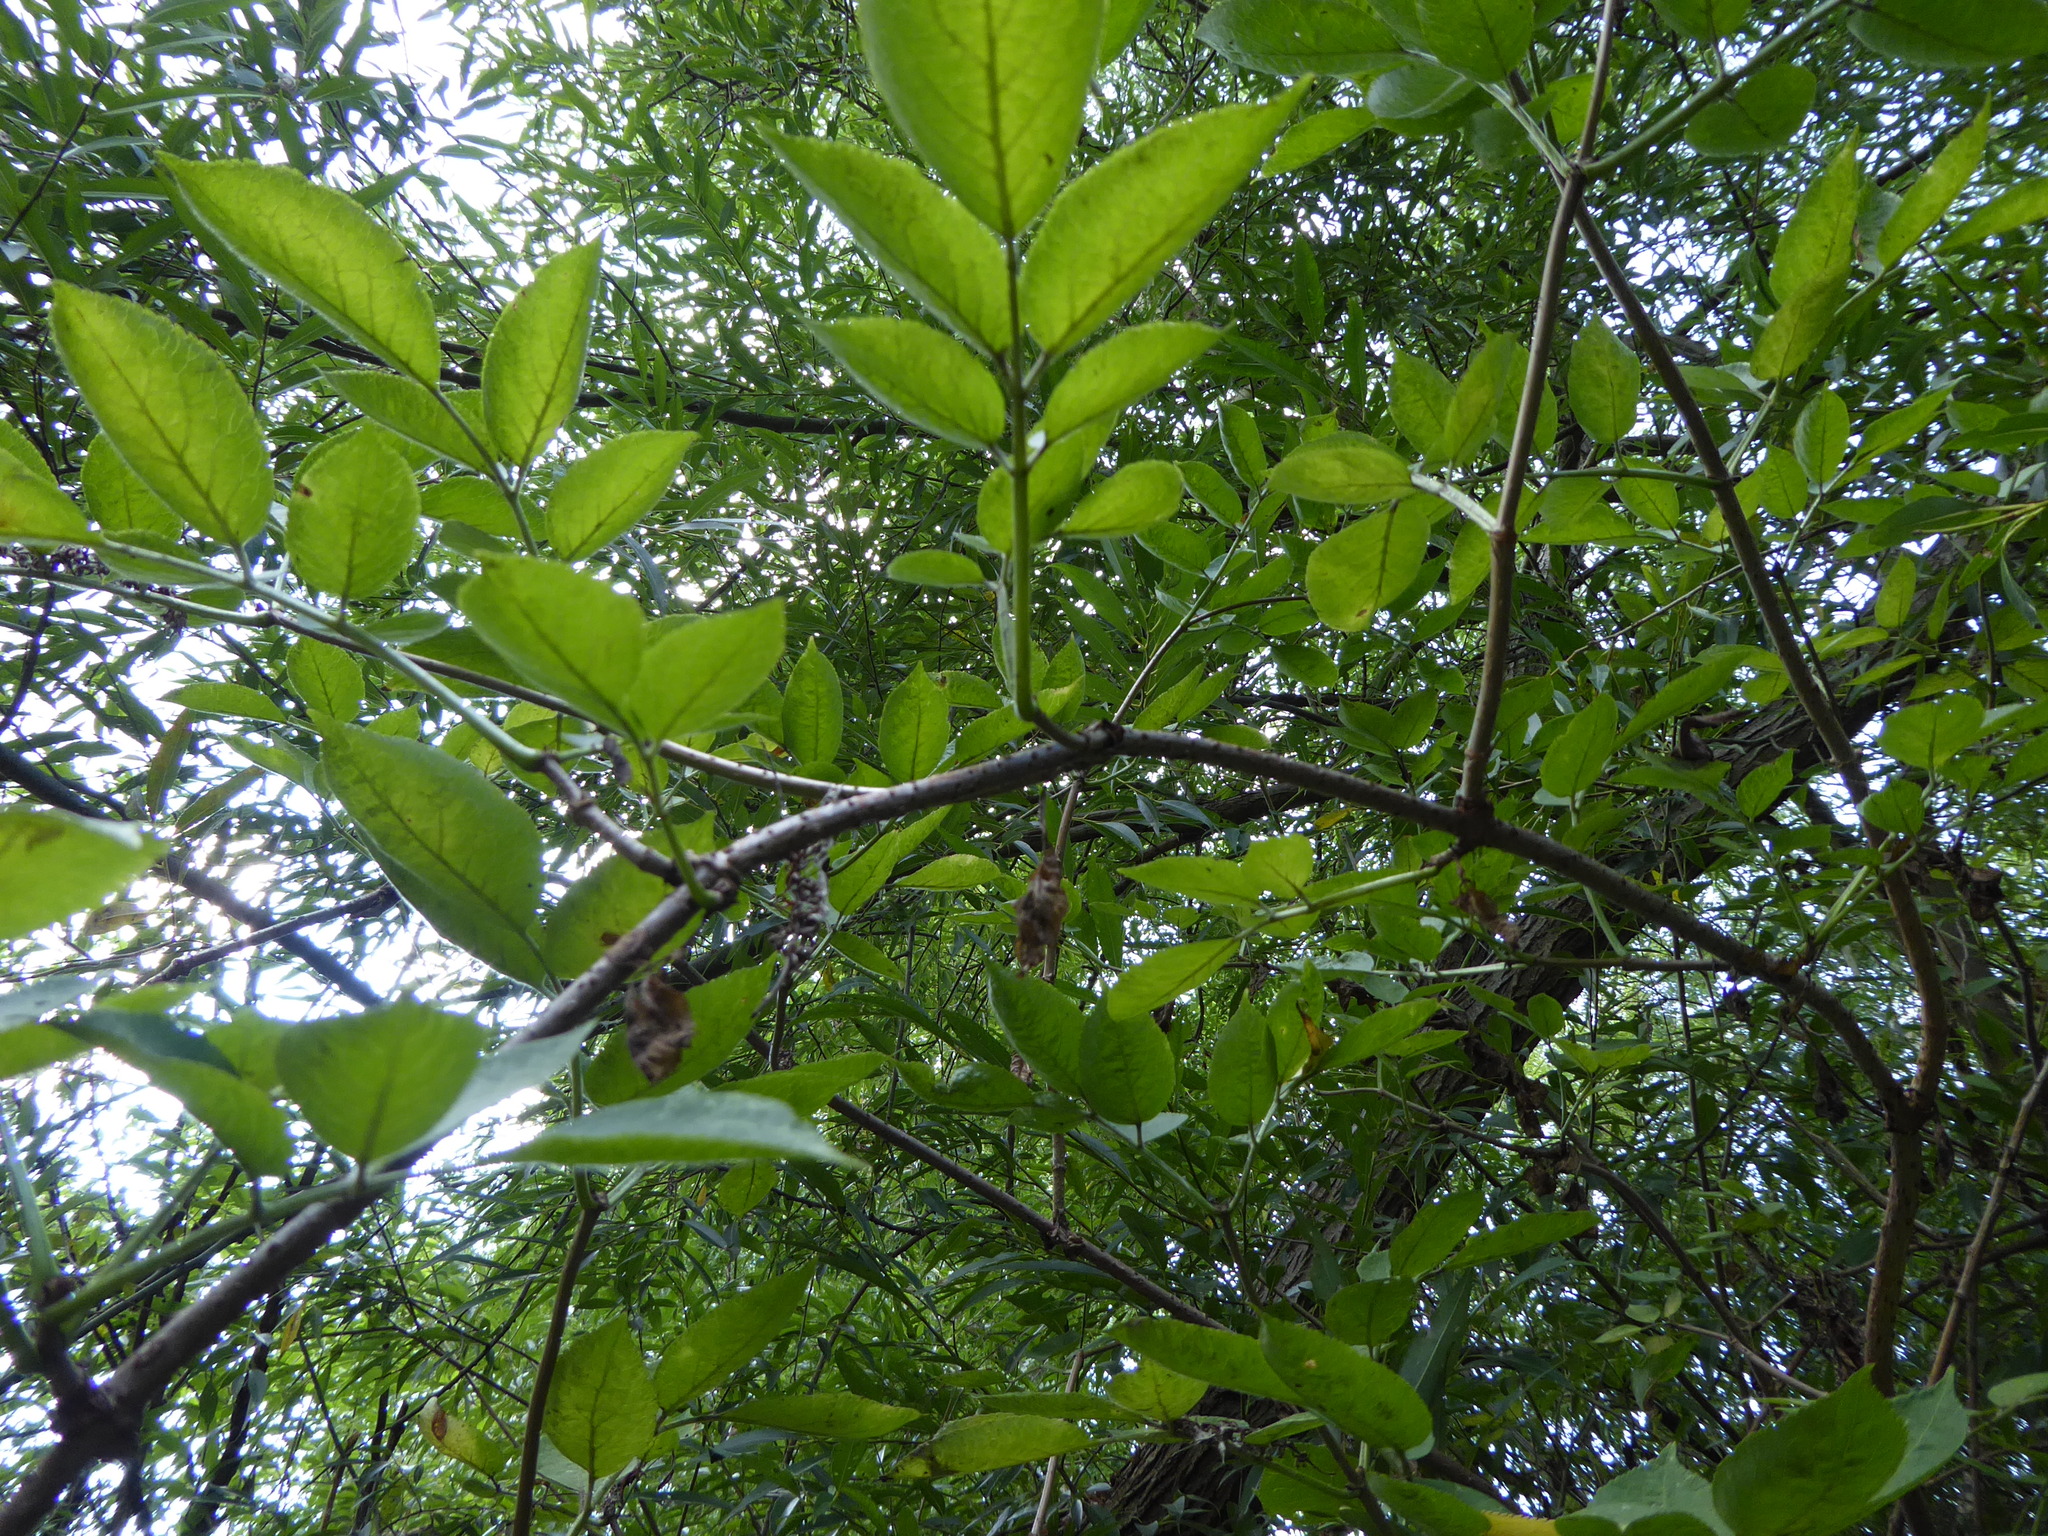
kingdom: Plantae
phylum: Tracheophyta
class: Magnoliopsida
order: Dipsacales
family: Viburnaceae
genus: Sambucus
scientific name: Sambucus nigra
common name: Elder
